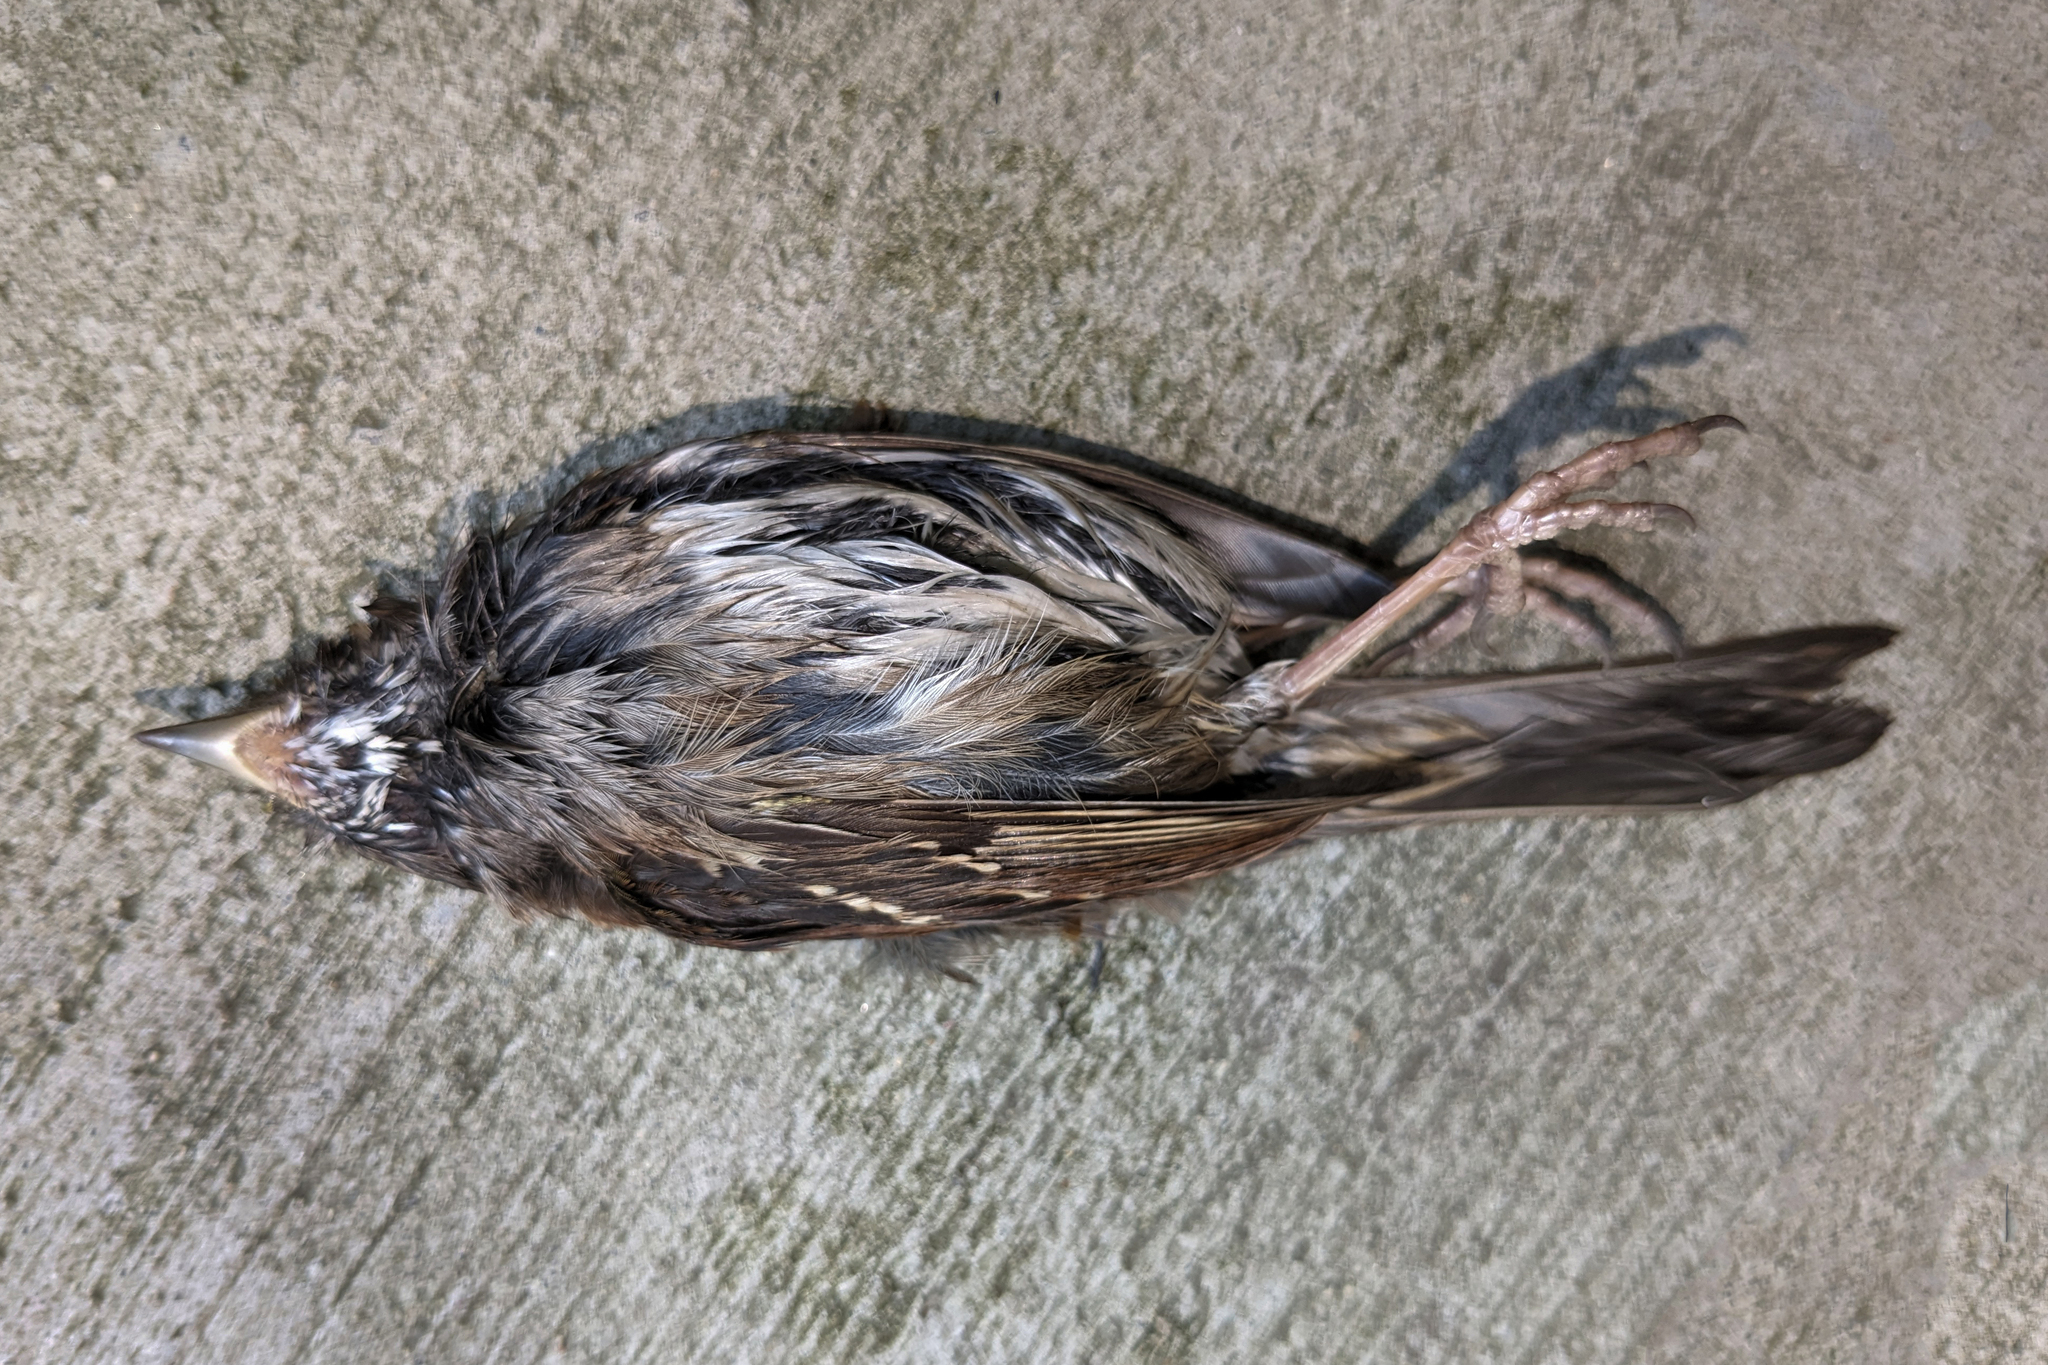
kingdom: Animalia
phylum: Chordata
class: Aves
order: Passeriformes
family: Passerellidae
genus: Zonotrichia
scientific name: Zonotrichia albicollis
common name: White-throated sparrow
